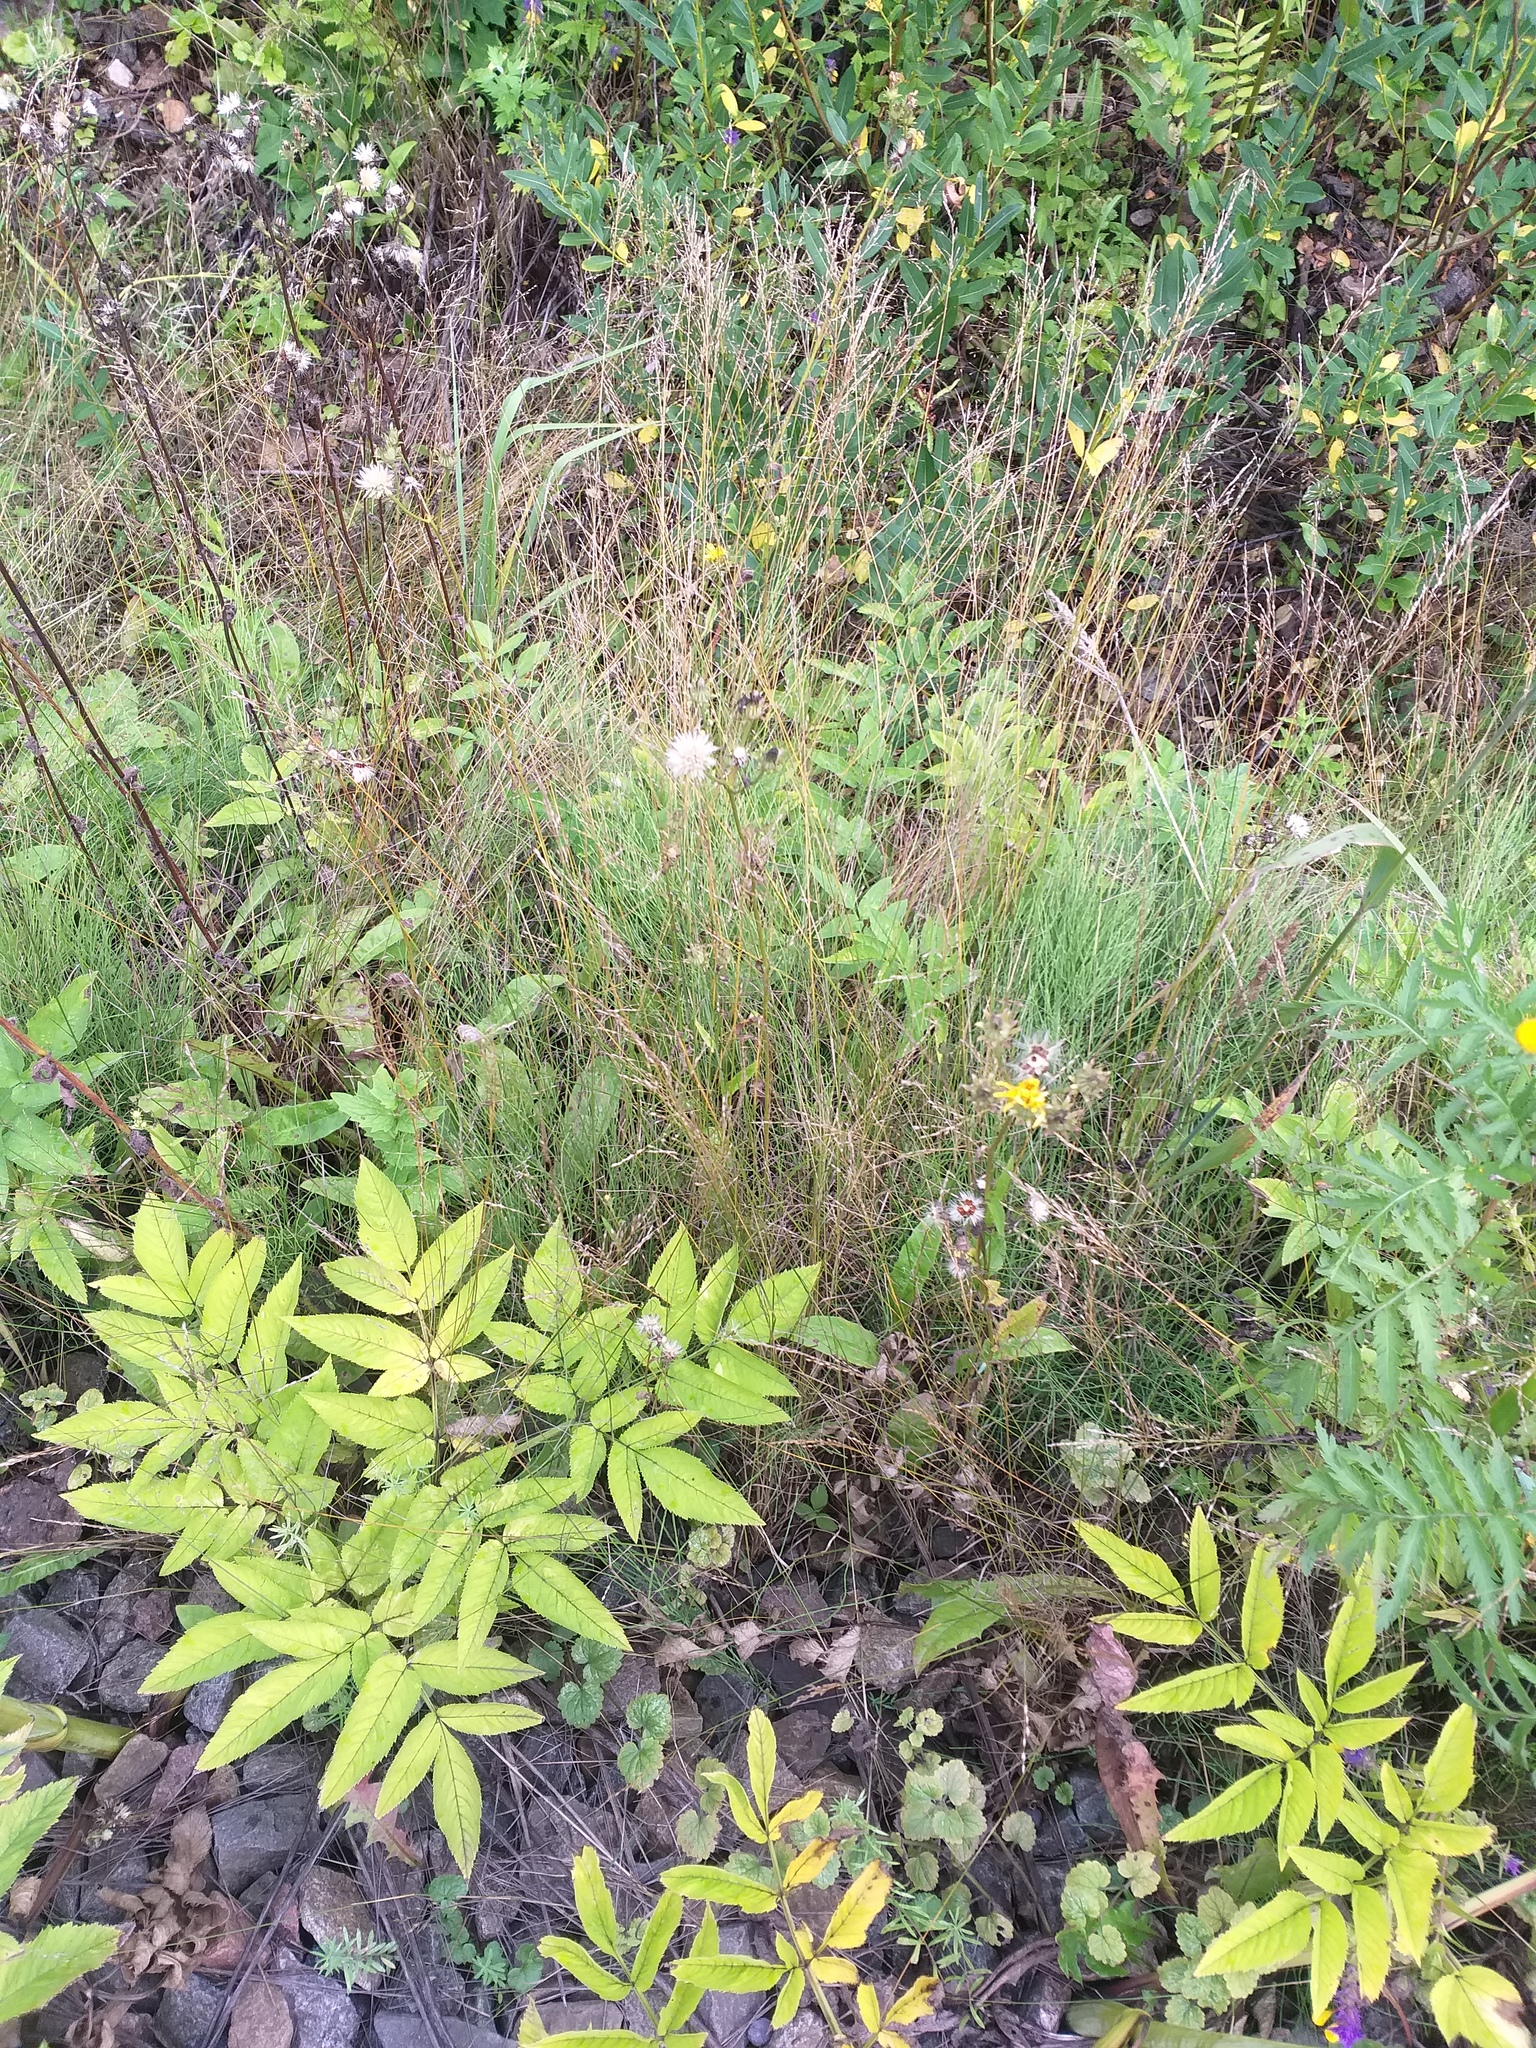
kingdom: Plantae
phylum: Tracheophyta
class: Magnoliopsida
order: Apiales
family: Apiaceae
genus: Angelica
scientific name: Angelica sylvestris
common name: Wild angelica
